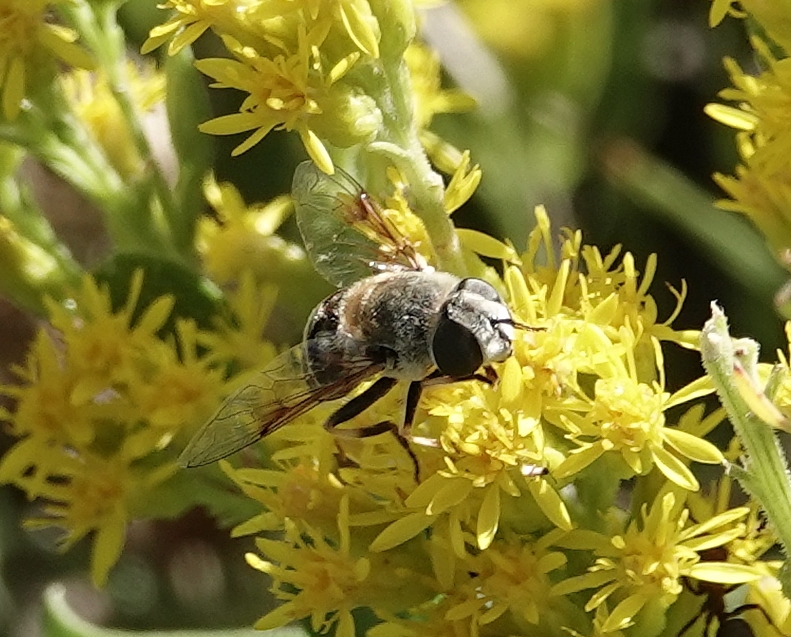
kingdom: Animalia
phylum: Arthropoda
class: Insecta
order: Diptera
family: Syrphidae
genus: Eristalis
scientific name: Eristalis stipator
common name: Yellow-shouldered drone fly
